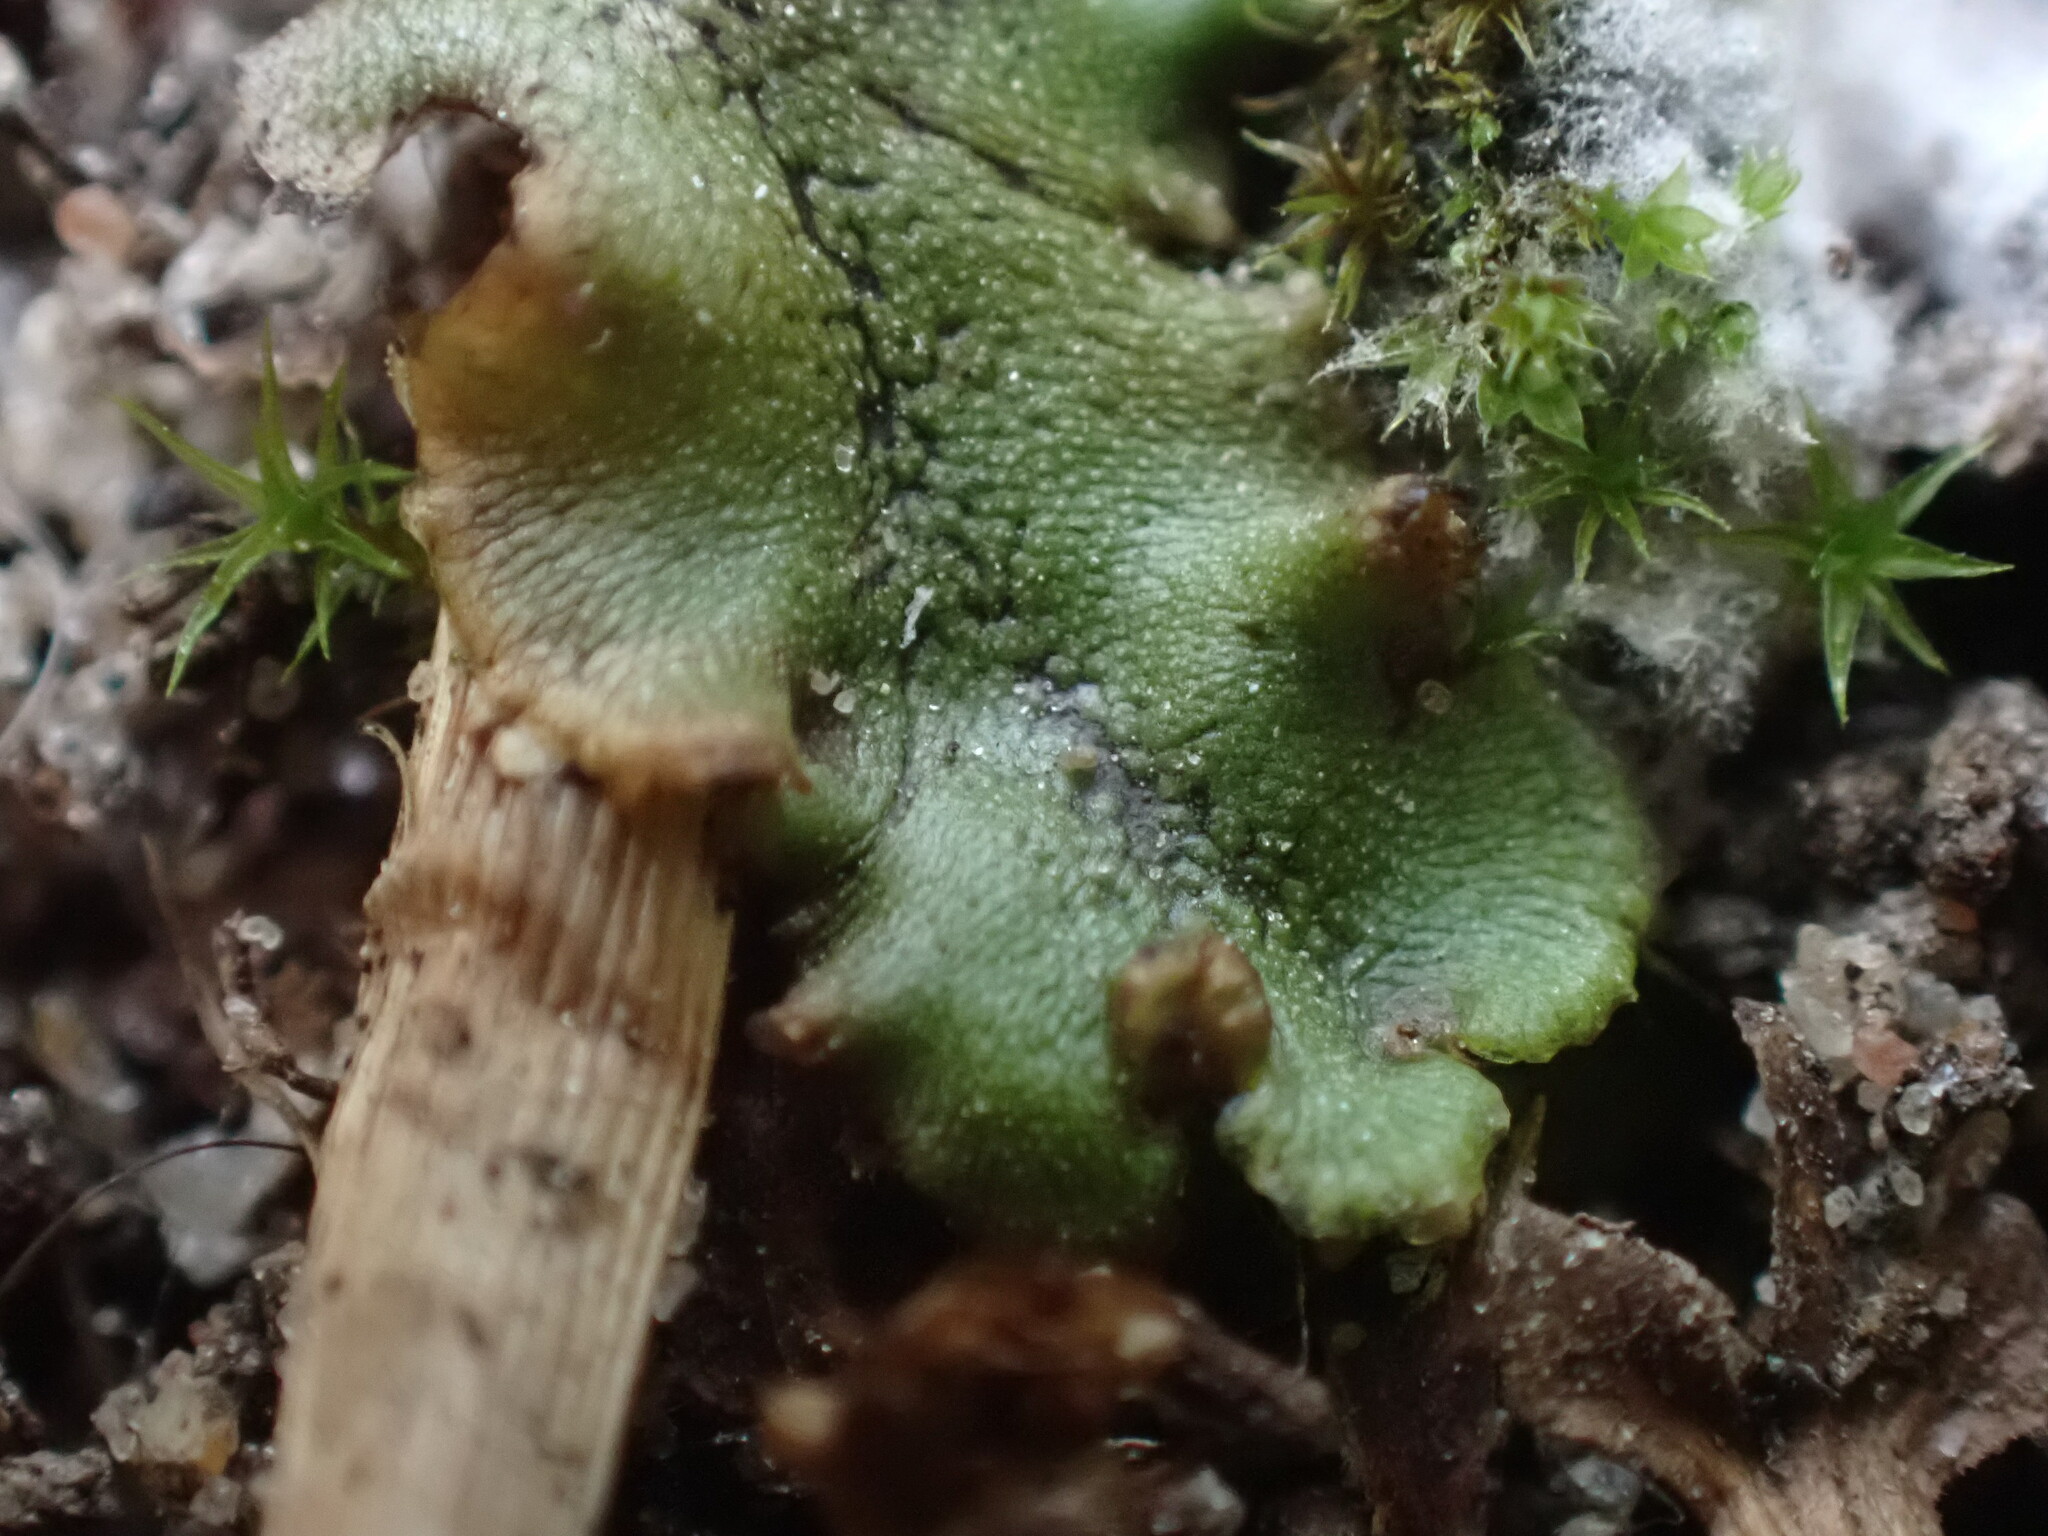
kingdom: Plantae
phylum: Marchantiophyta
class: Marchantiopsida
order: Marchantiales
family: Marchantiaceae
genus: Marchantia
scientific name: Marchantia polymorpha
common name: Common liverwort
